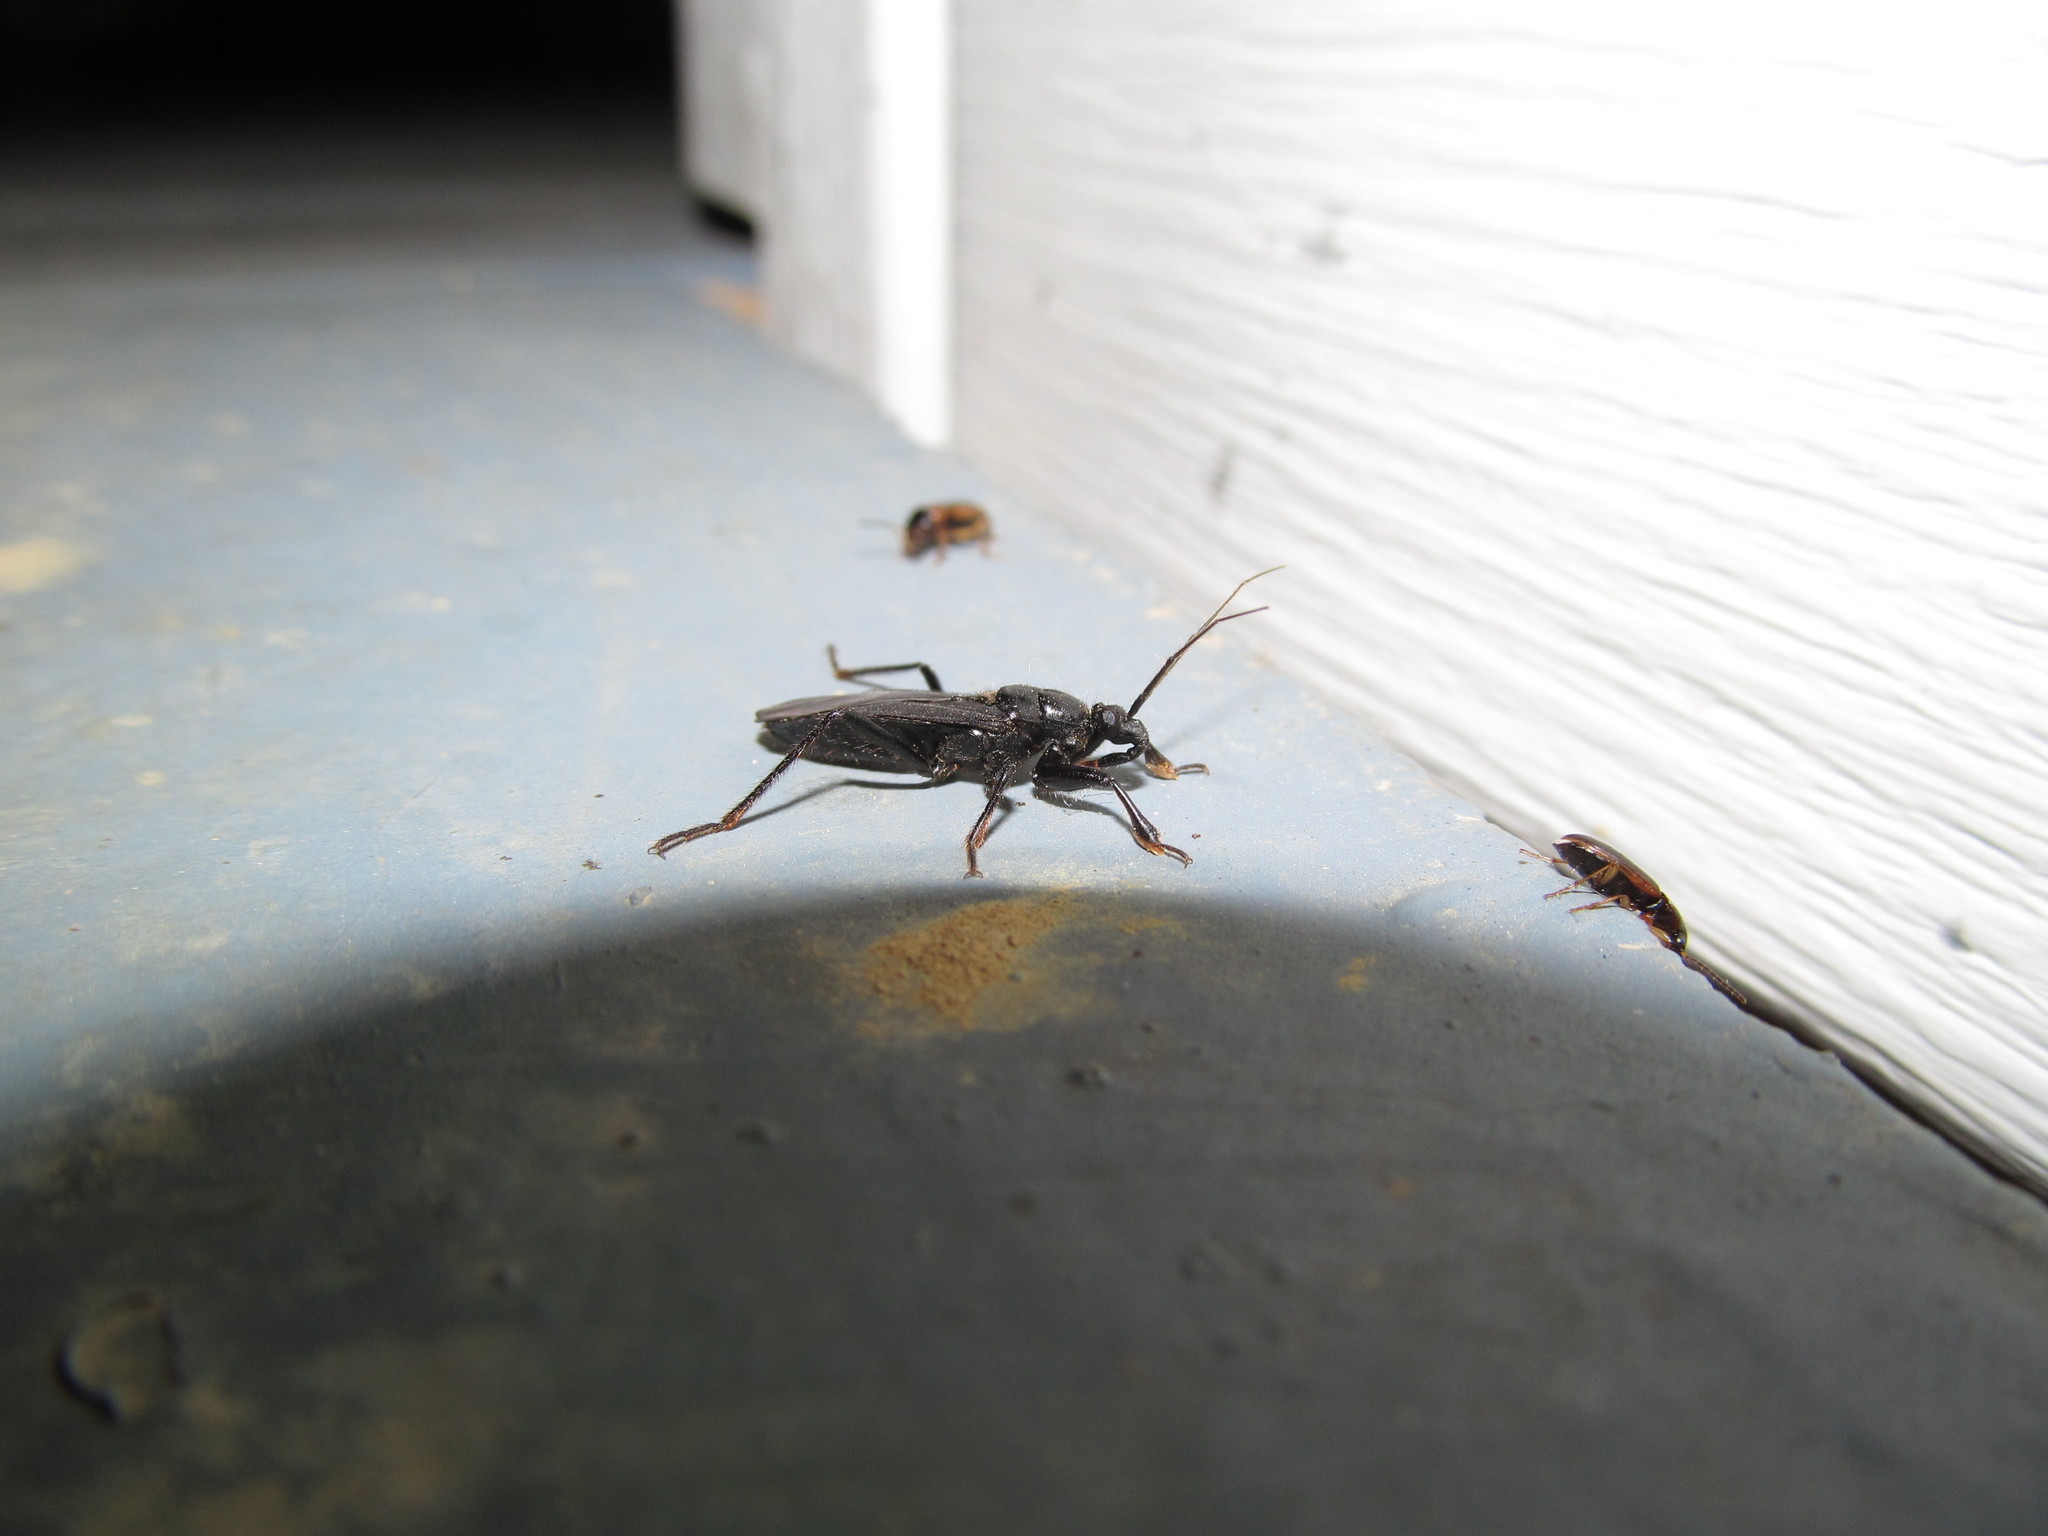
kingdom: Animalia
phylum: Arthropoda
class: Insecta
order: Hemiptera
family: Reduviidae
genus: Melanolestes
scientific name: Melanolestes picipes
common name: Assassin bug
